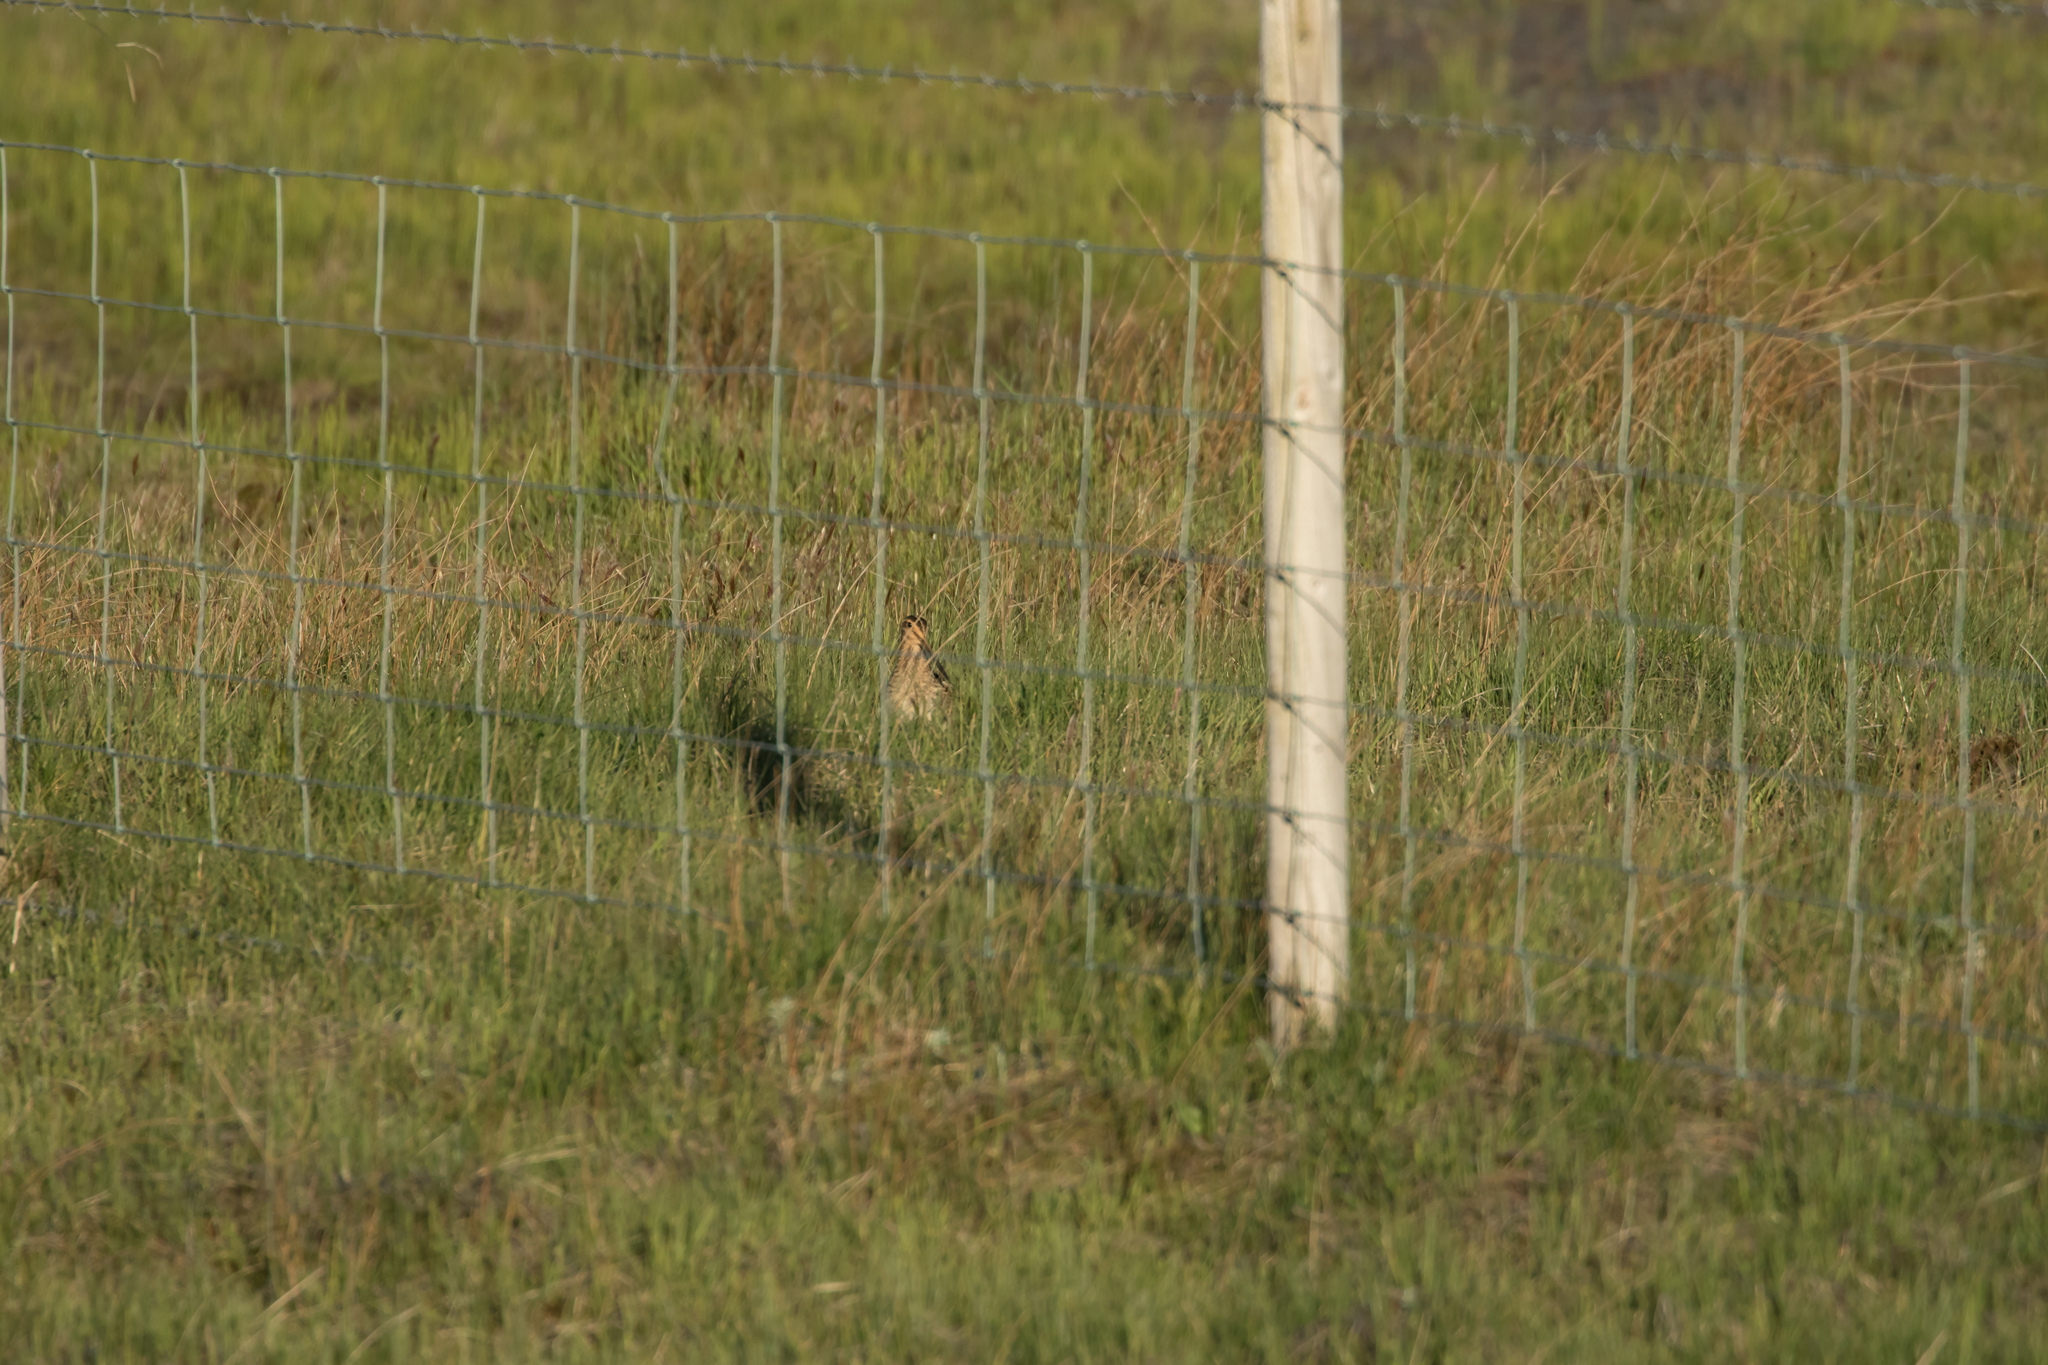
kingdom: Animalia
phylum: Chordata
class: Aves
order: Charadriiformes
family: Scolopacidae
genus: Gallinago
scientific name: Gallinago gallinago
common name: Common snipe
